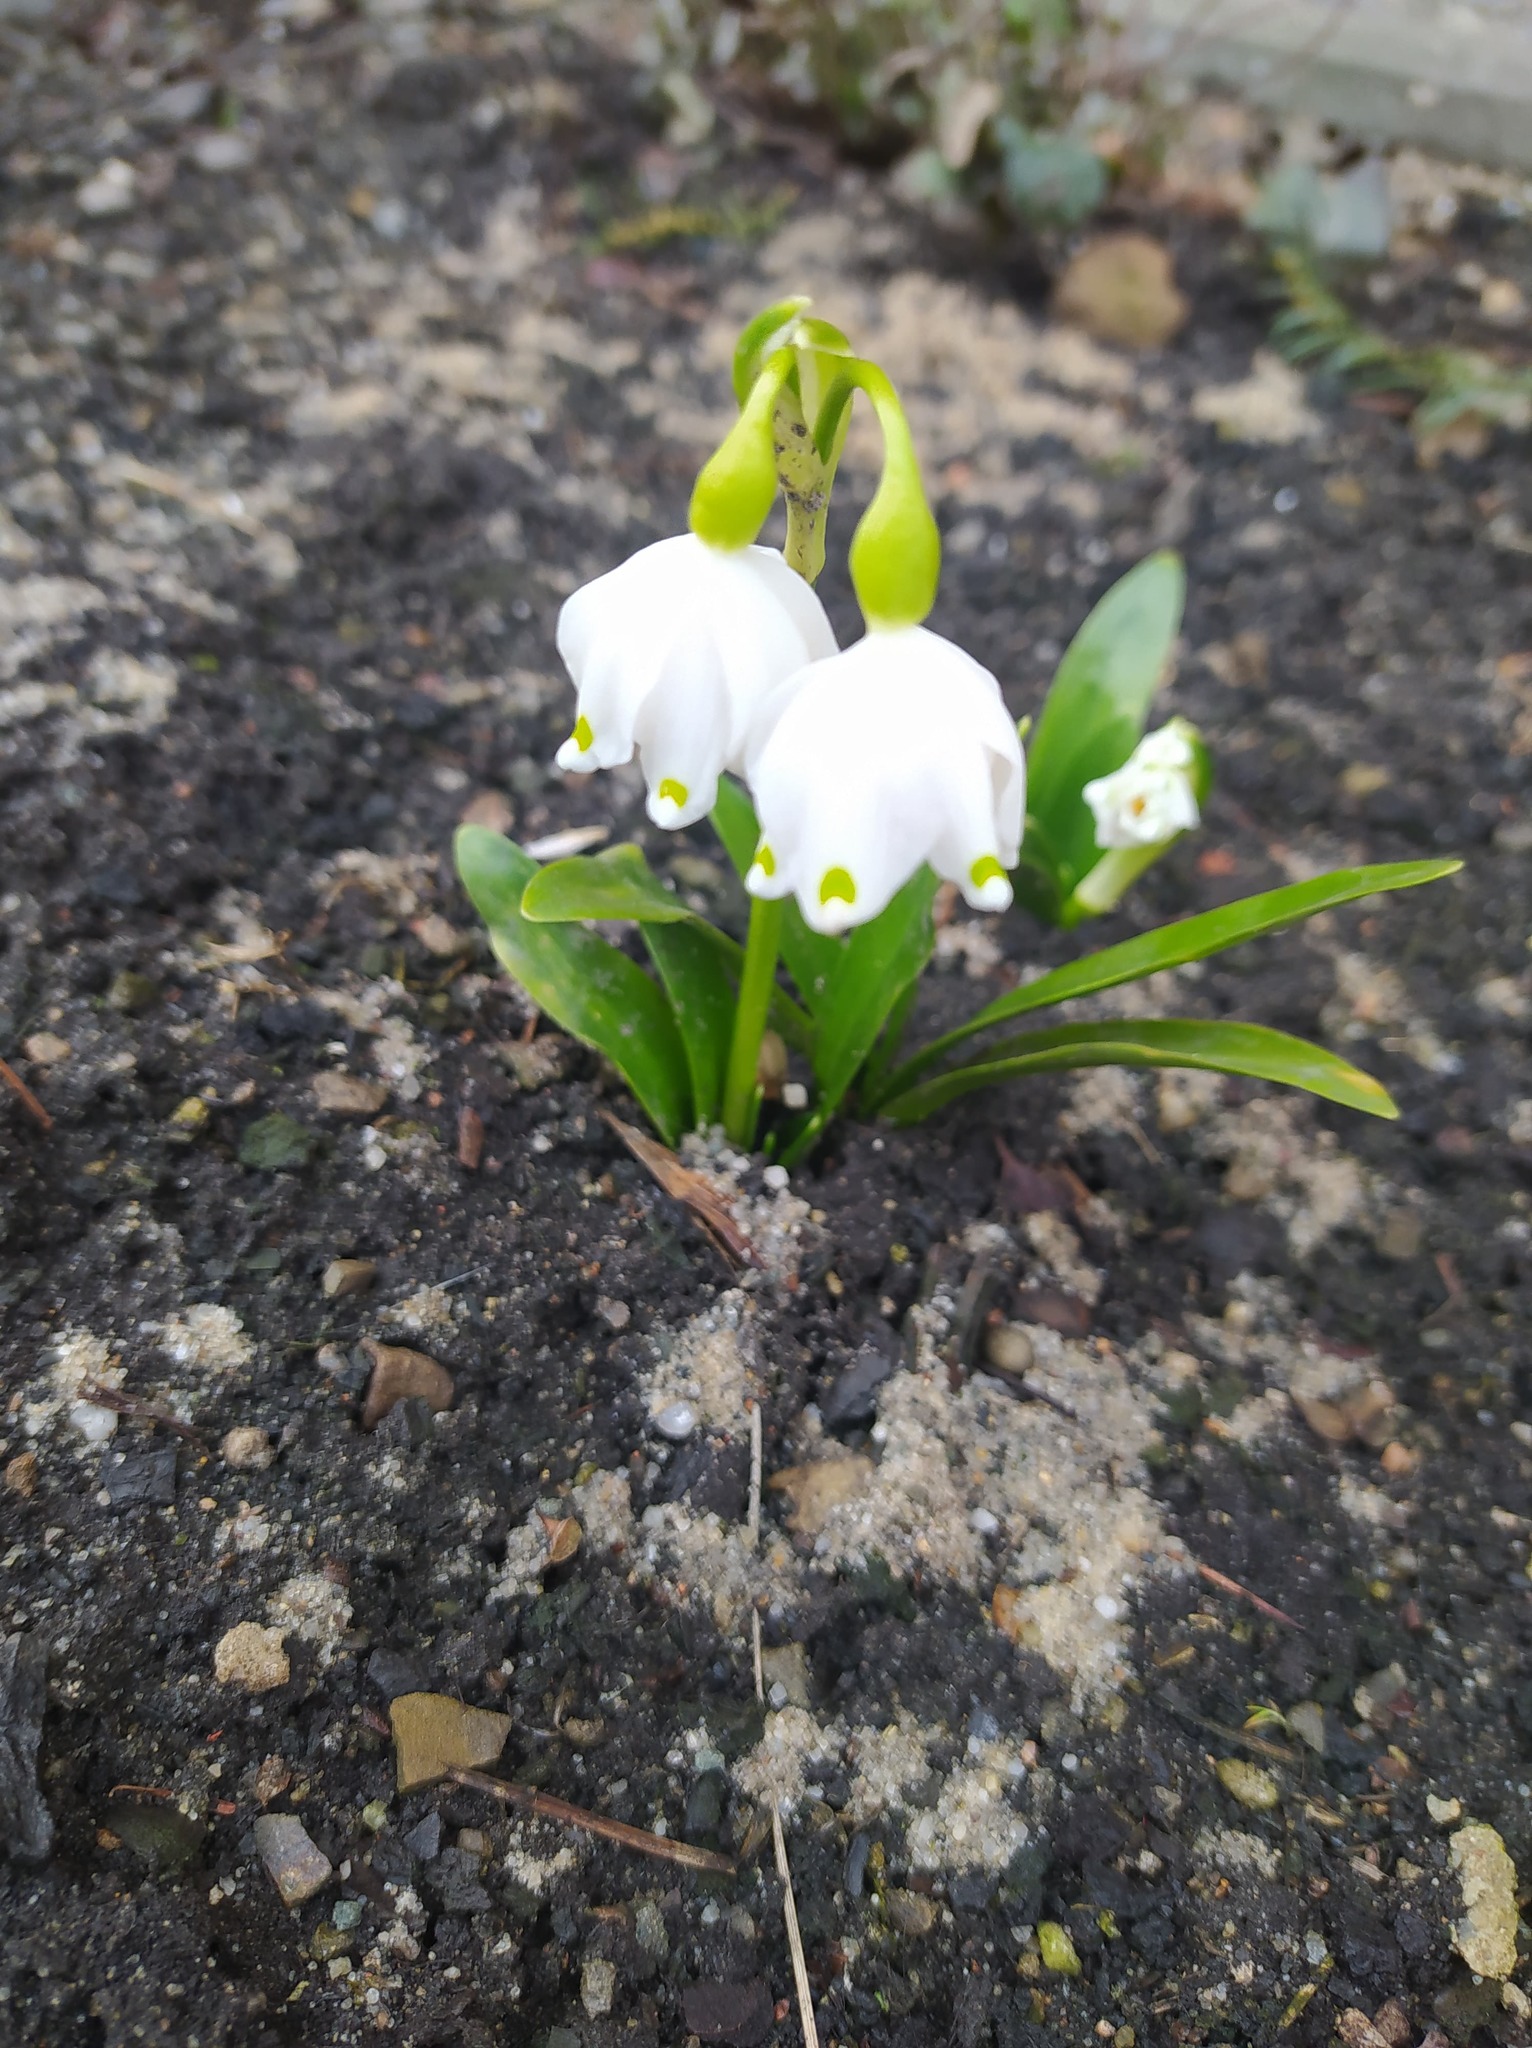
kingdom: Plantae
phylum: Tracheophyta
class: Liliopsida
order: Asparagales
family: Amaryllidaceae
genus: Leucojum
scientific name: Leucojum vernum
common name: Spring snowflake
